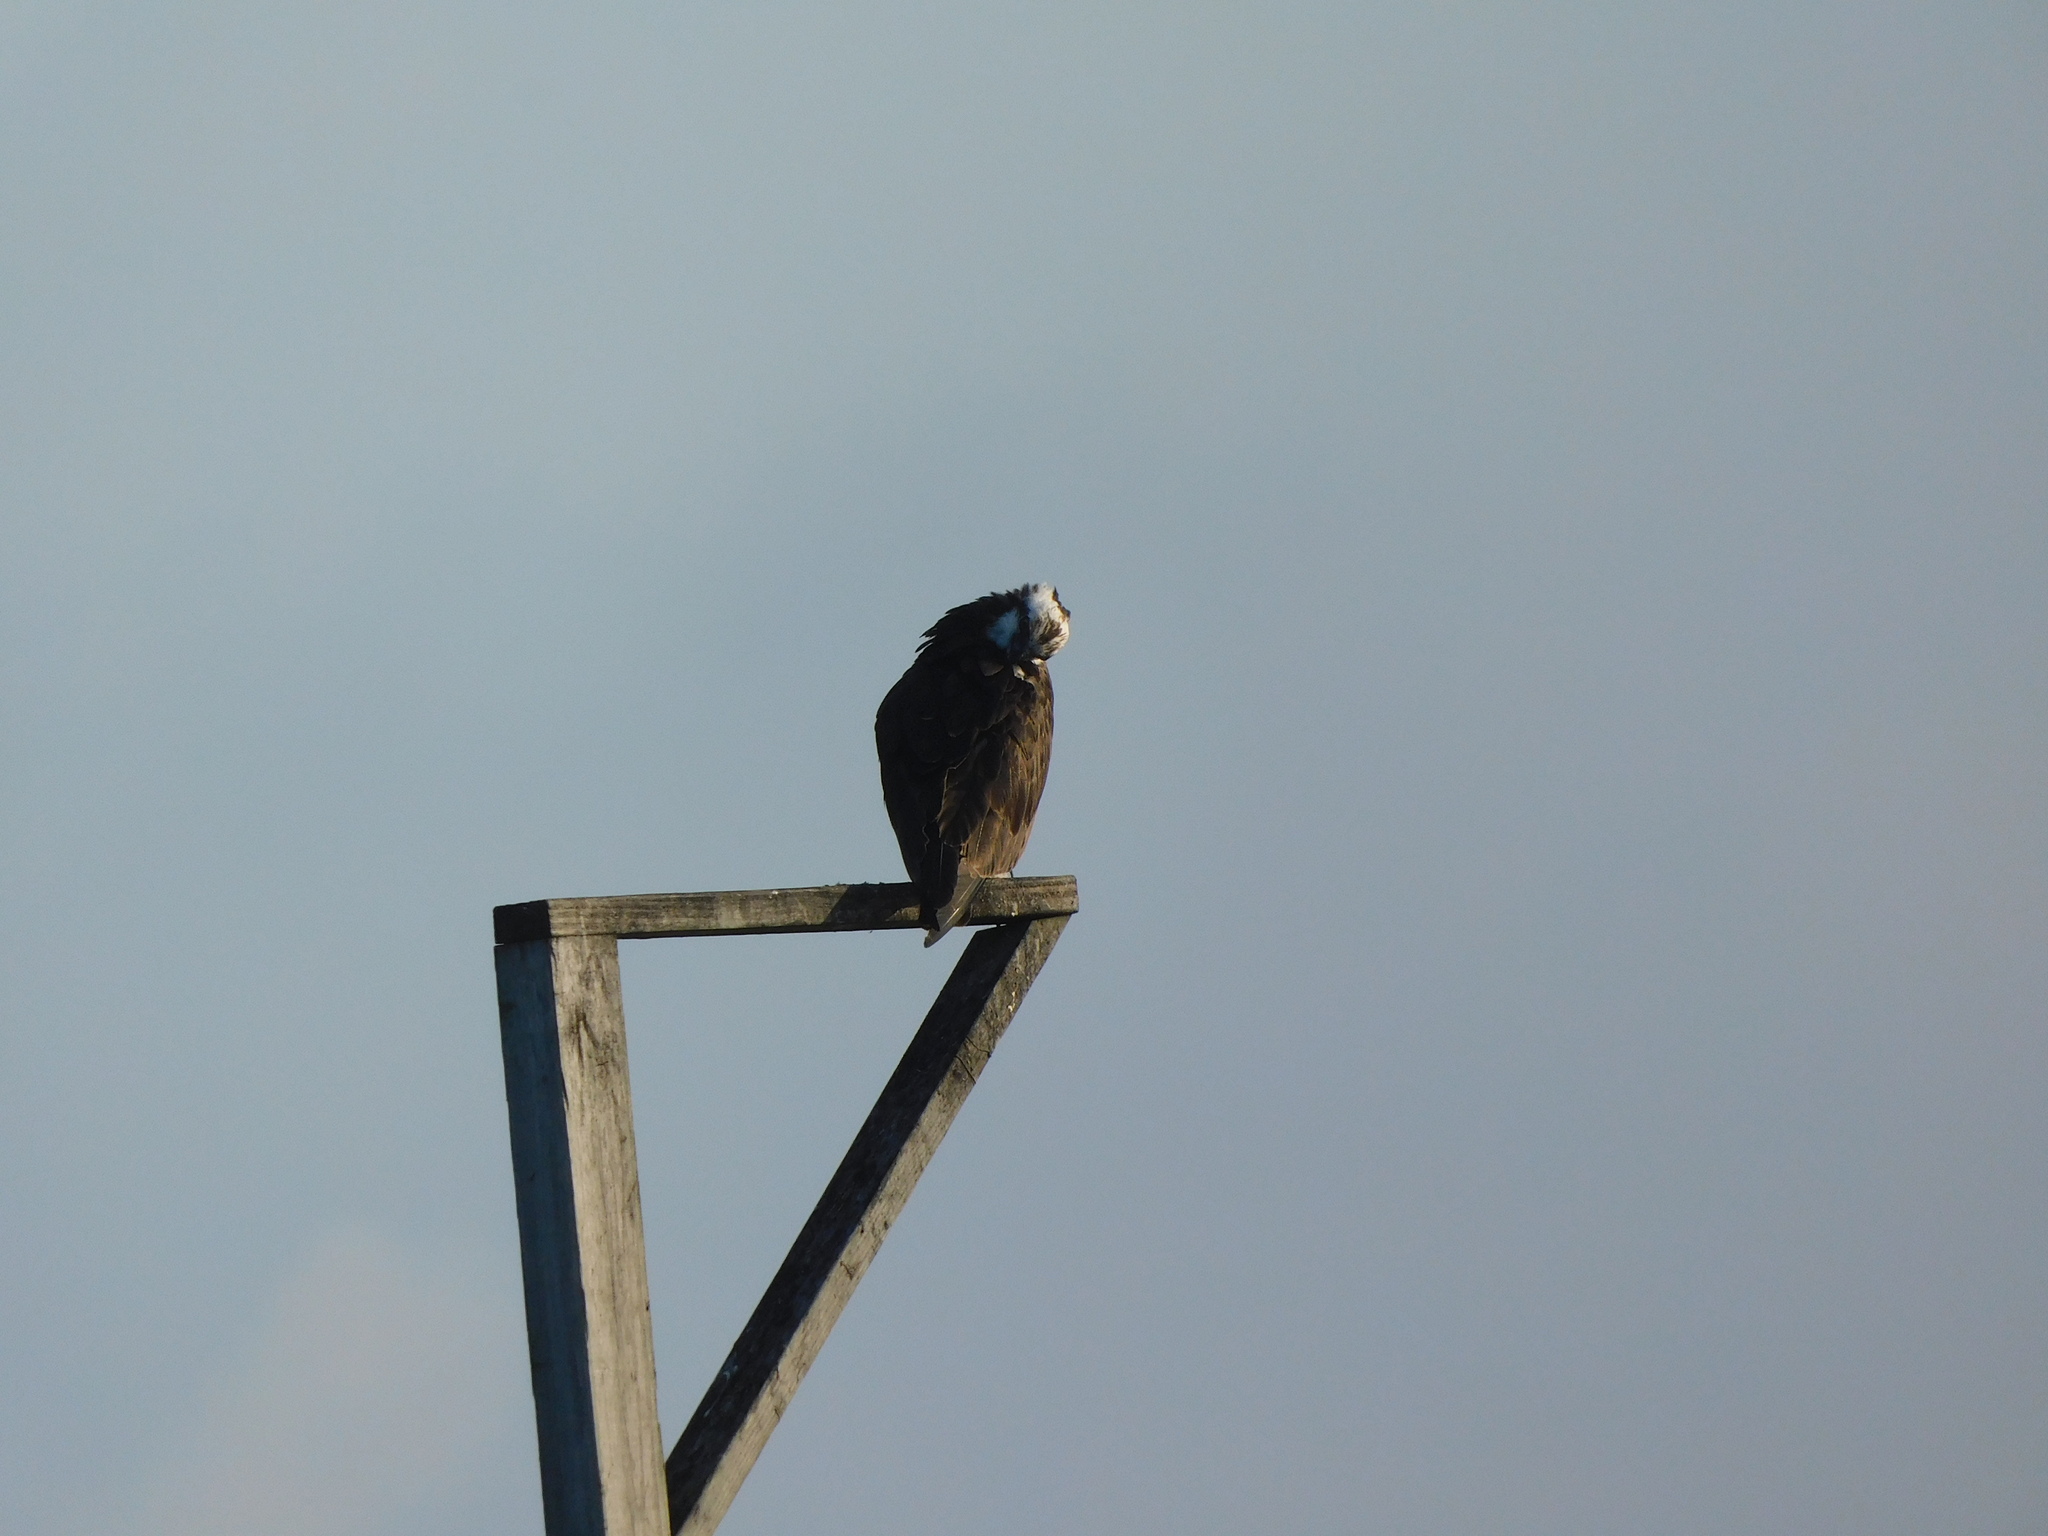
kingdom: Animalia
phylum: Chordata
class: Aves
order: Accipitriformes
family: Pandionidae
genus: Pandion
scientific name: Pandion haliaetus
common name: Osprey
